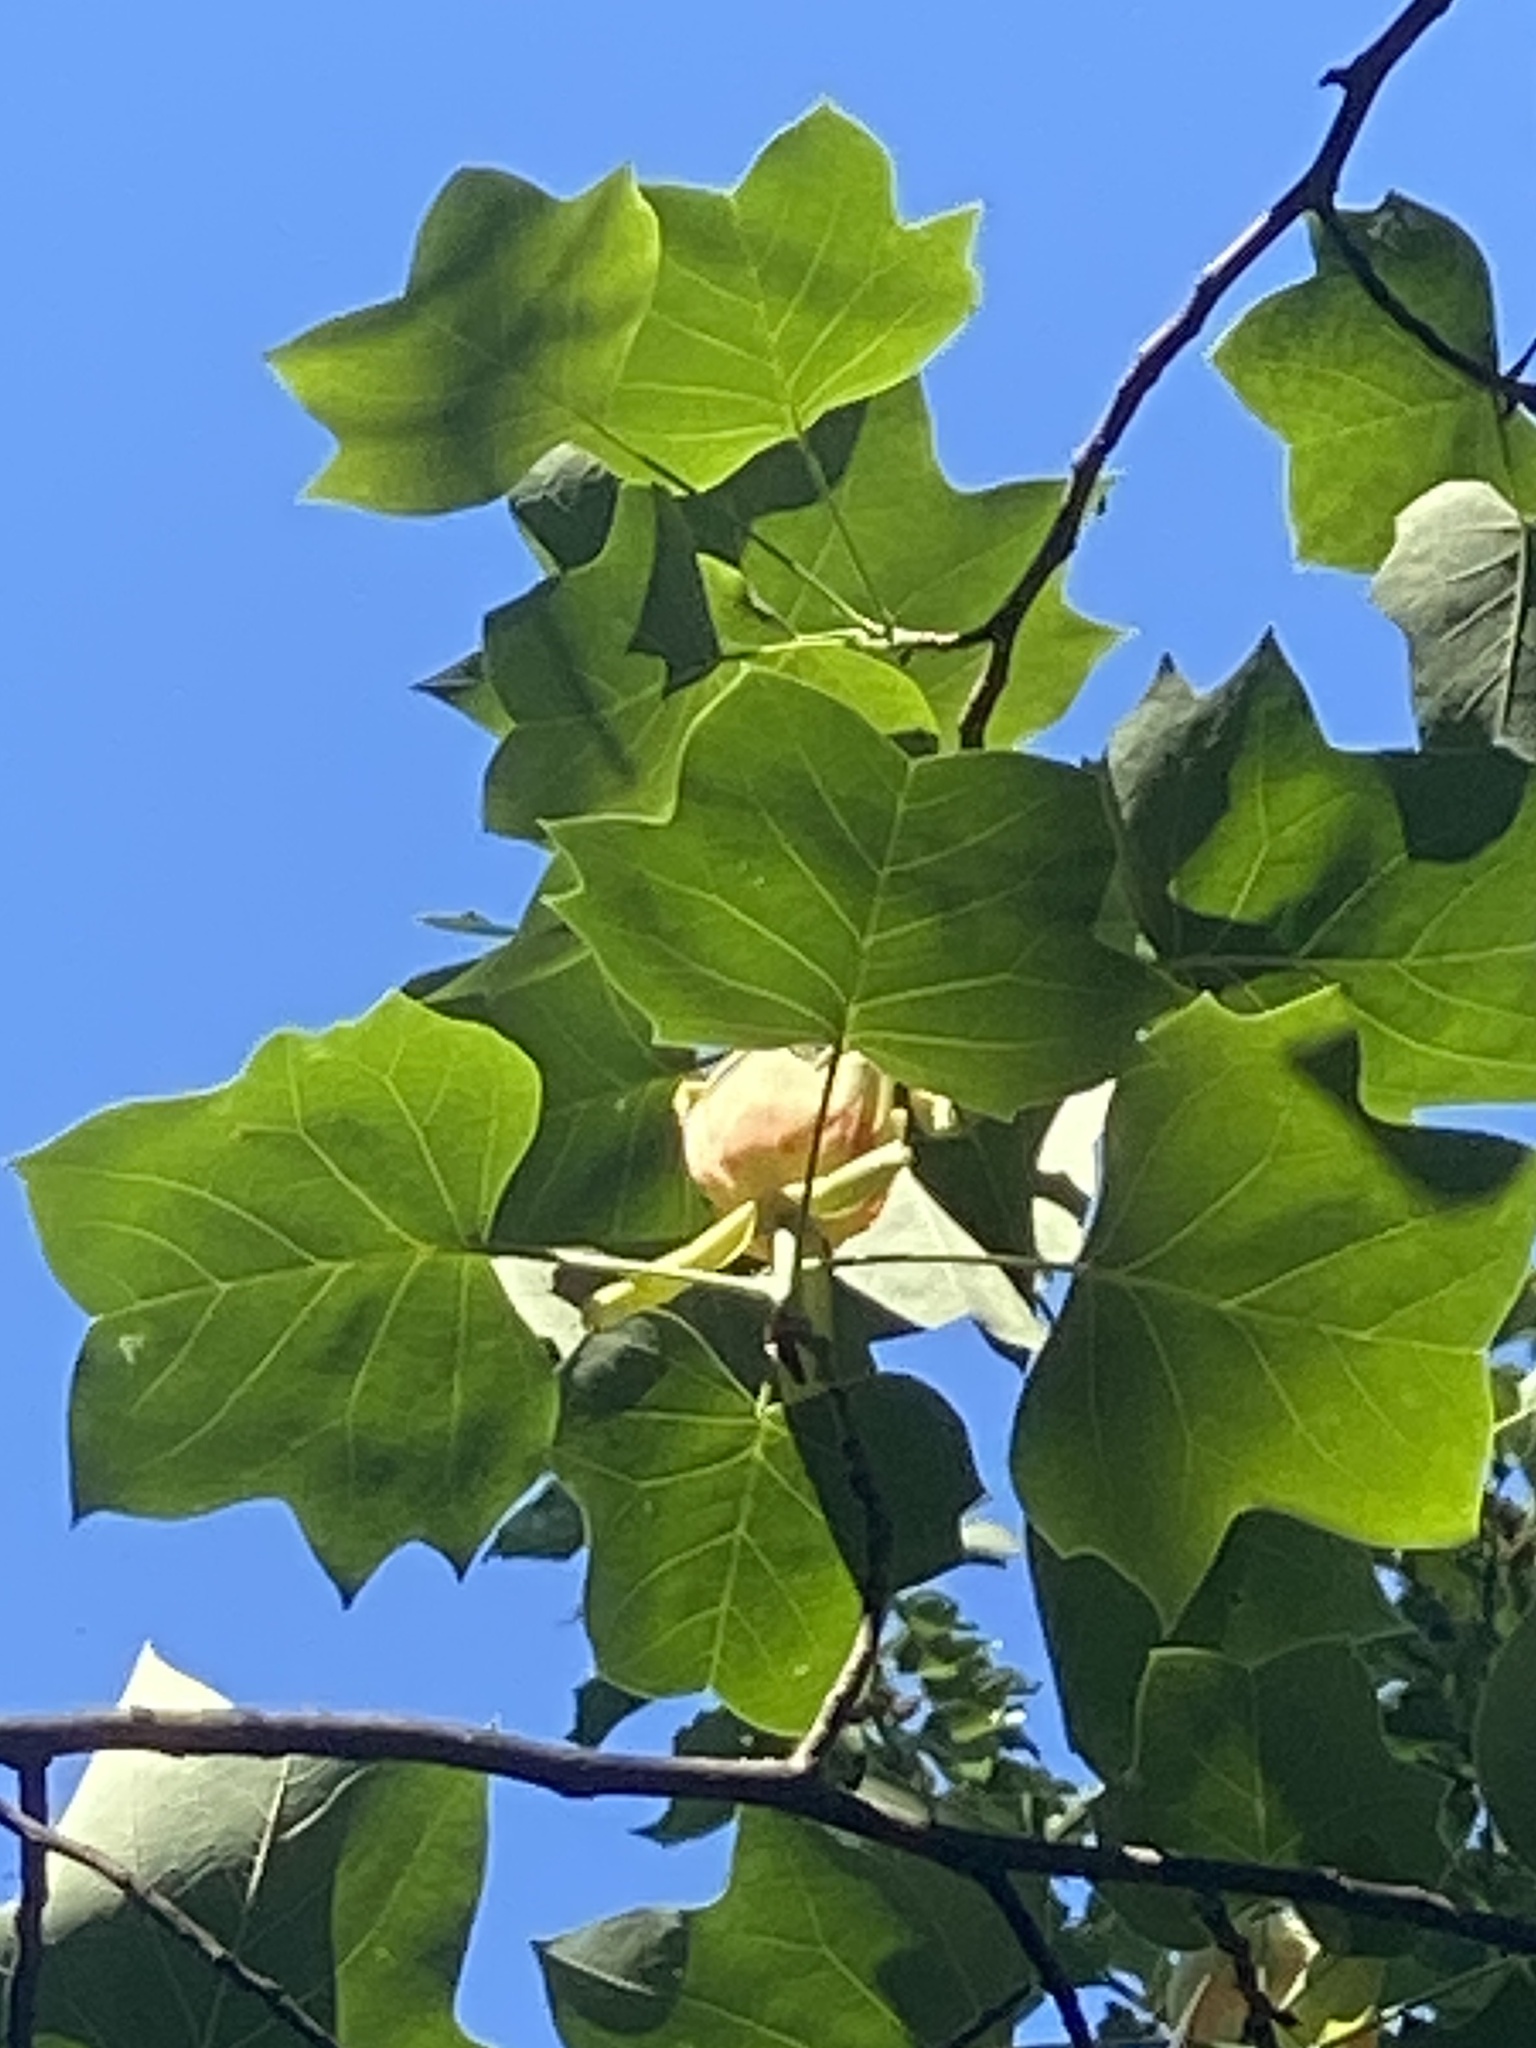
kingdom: Plantae
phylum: Tracheophyta
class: Magnoliopsida
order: Magnoliales
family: Magnoliaceae
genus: Liriodendron
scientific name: Liriodendron tulipifera
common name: Tulip tree
